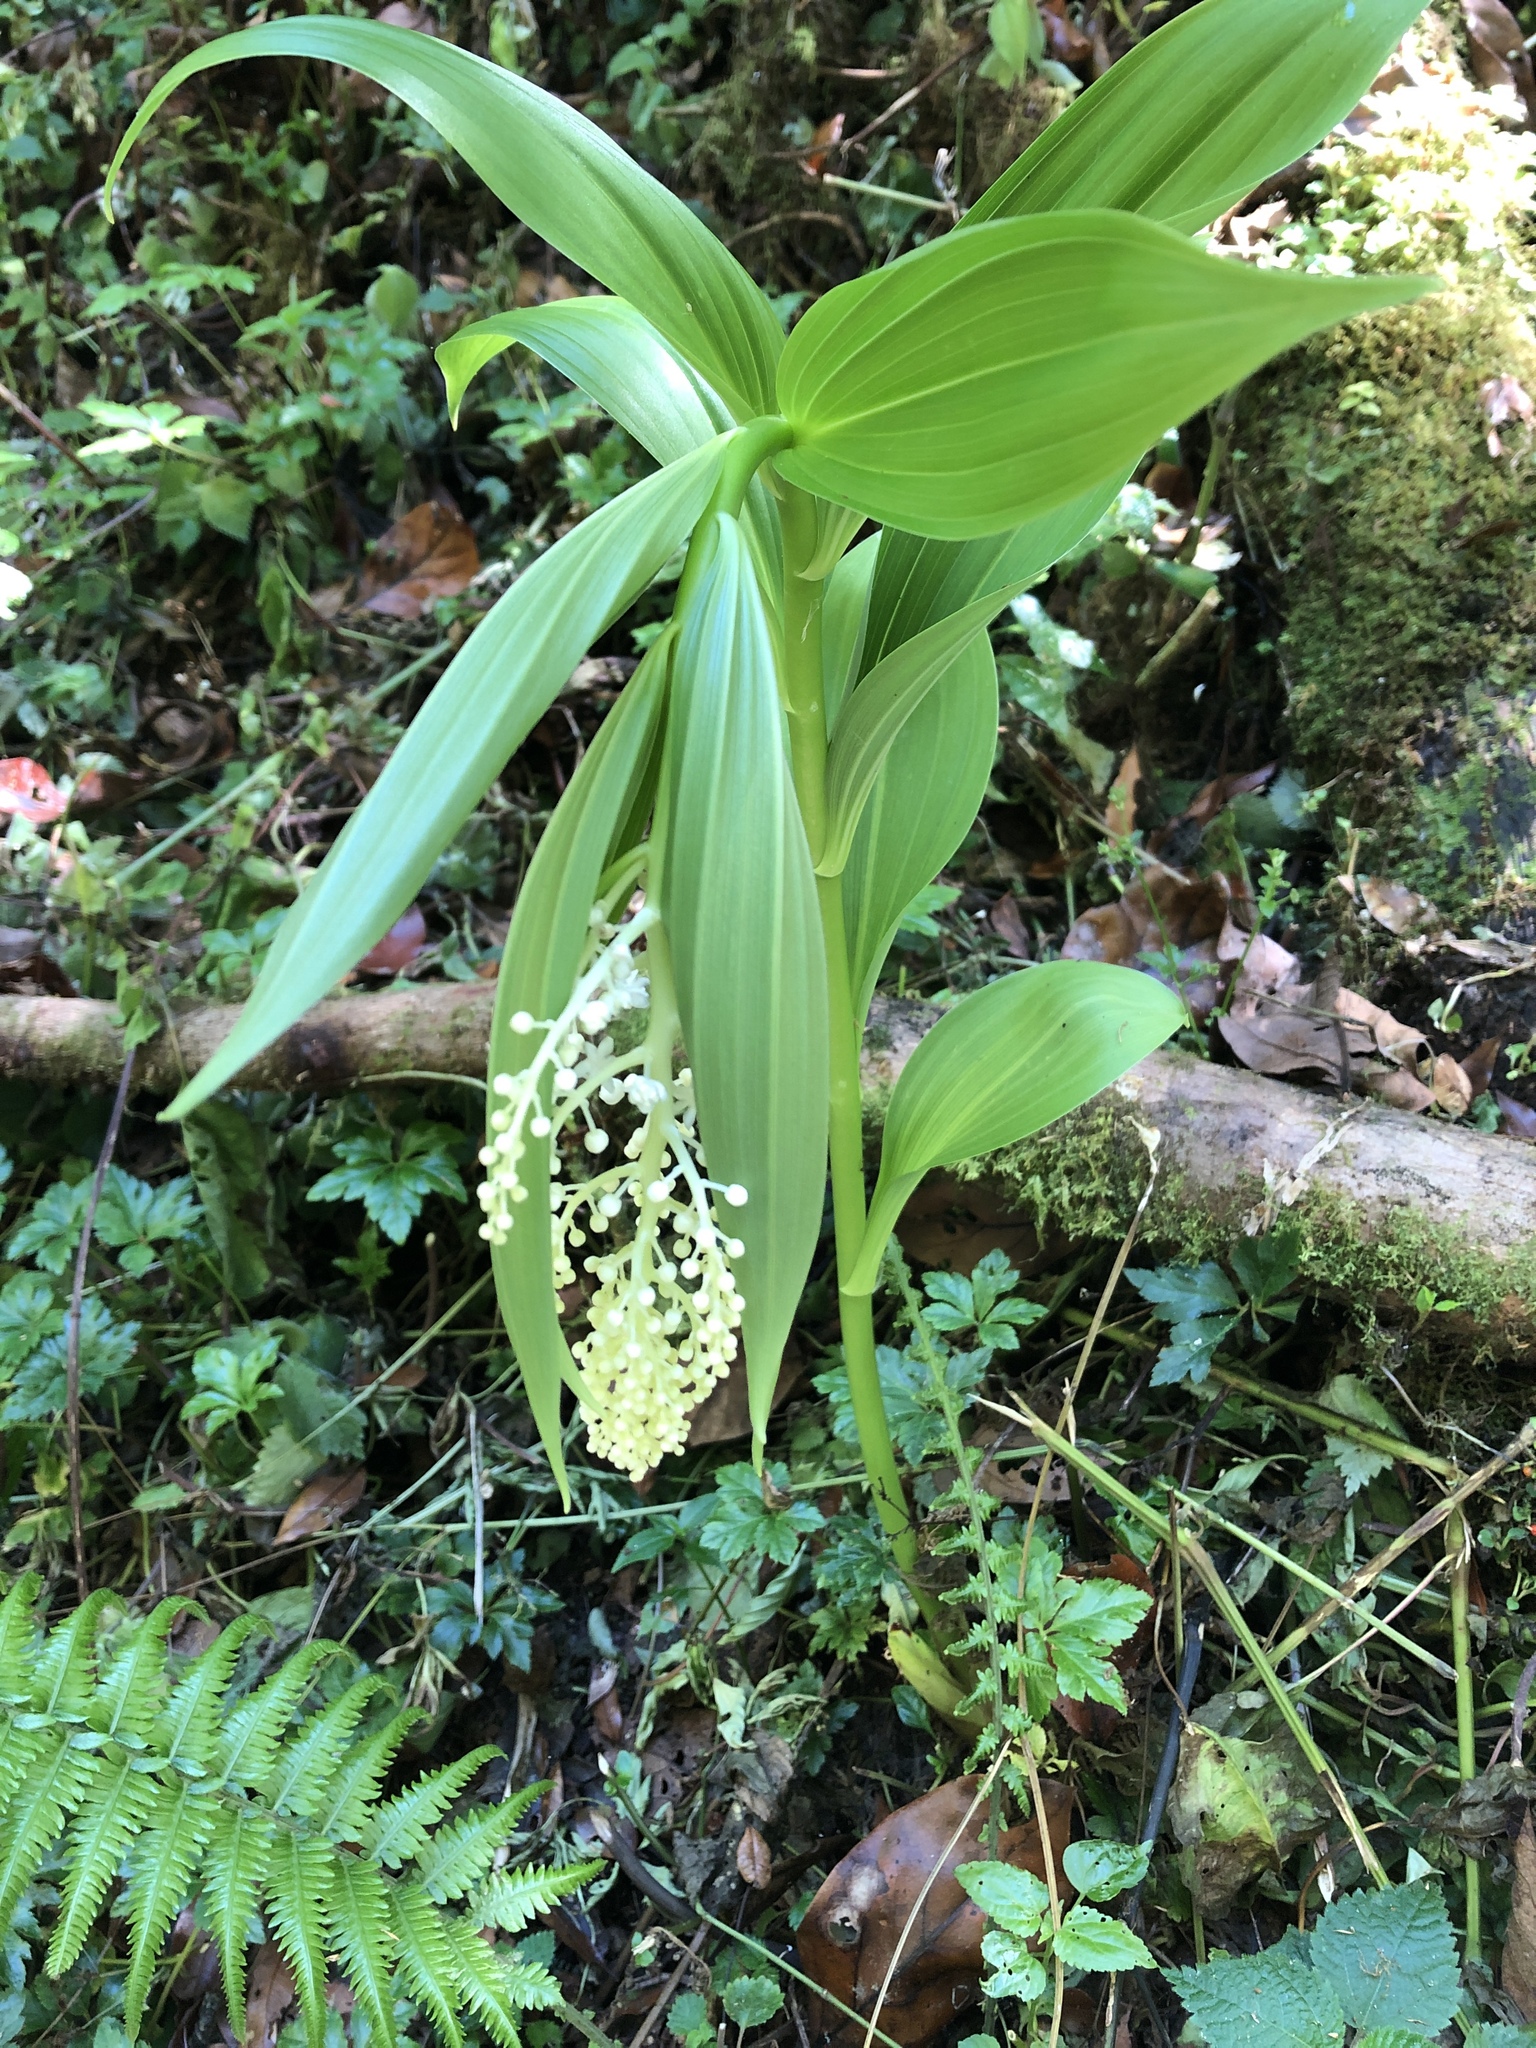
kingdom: Plantae
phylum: Tracheophyta
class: Liliopsida
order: Asparagales
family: Asparagaceae
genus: Maianthemum
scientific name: Maianthemum gigas
